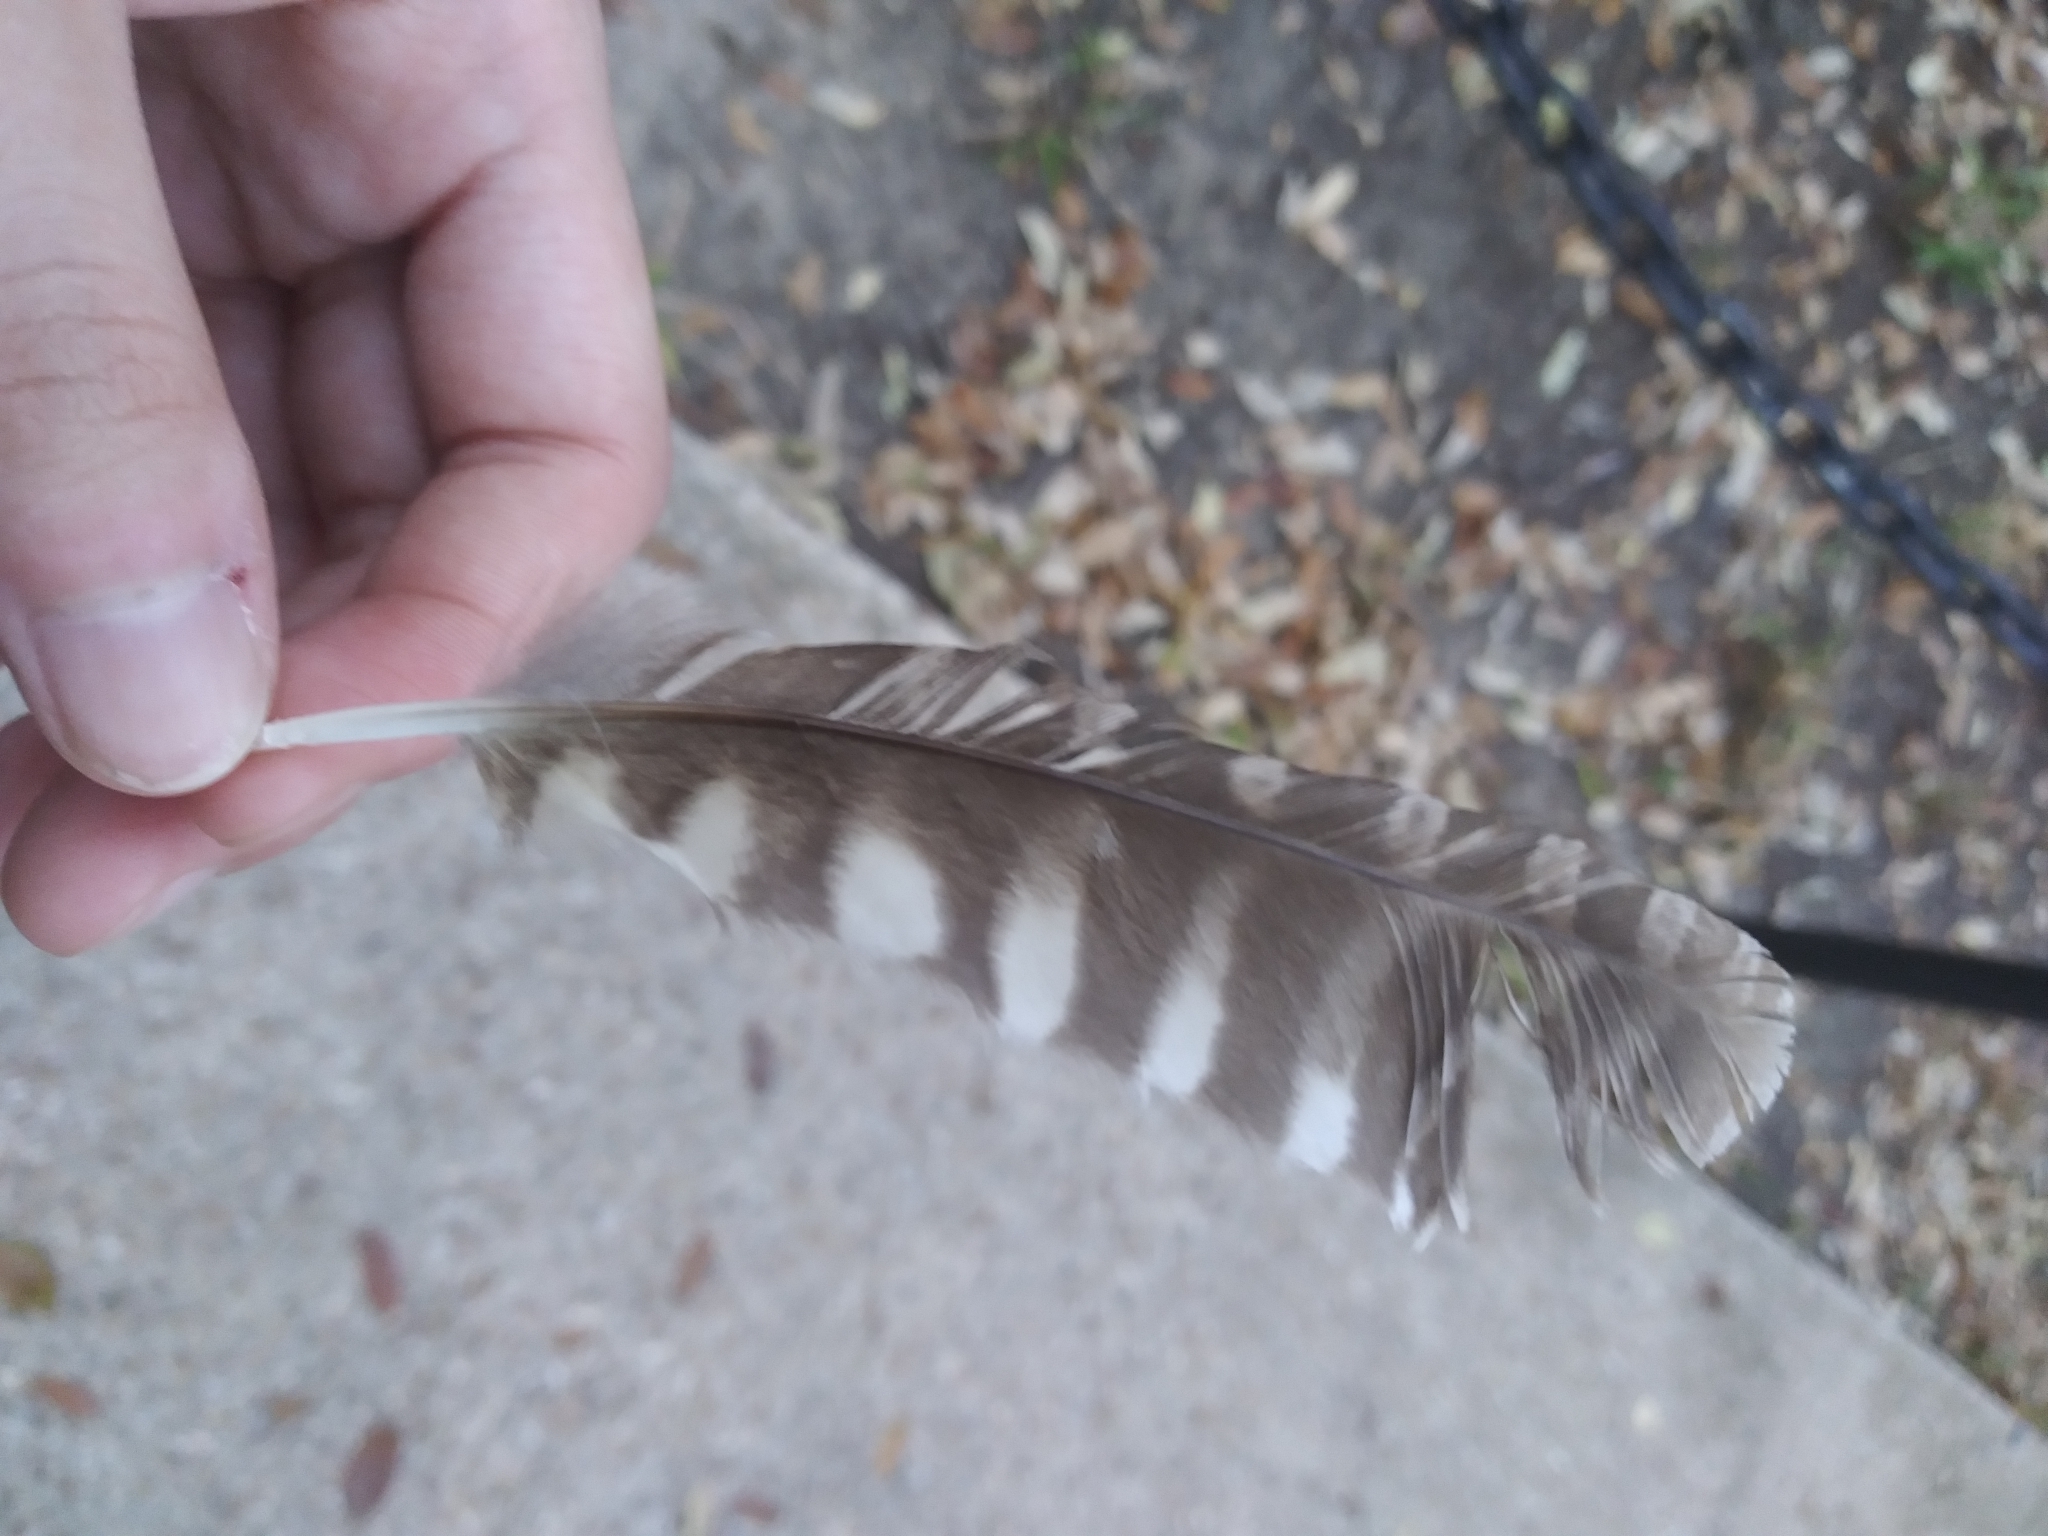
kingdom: Animalia
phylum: Chordata
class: Aves
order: Strigiformes
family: Strigidae
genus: Megascops
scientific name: Megascops asio
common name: Eastern screech-owl
